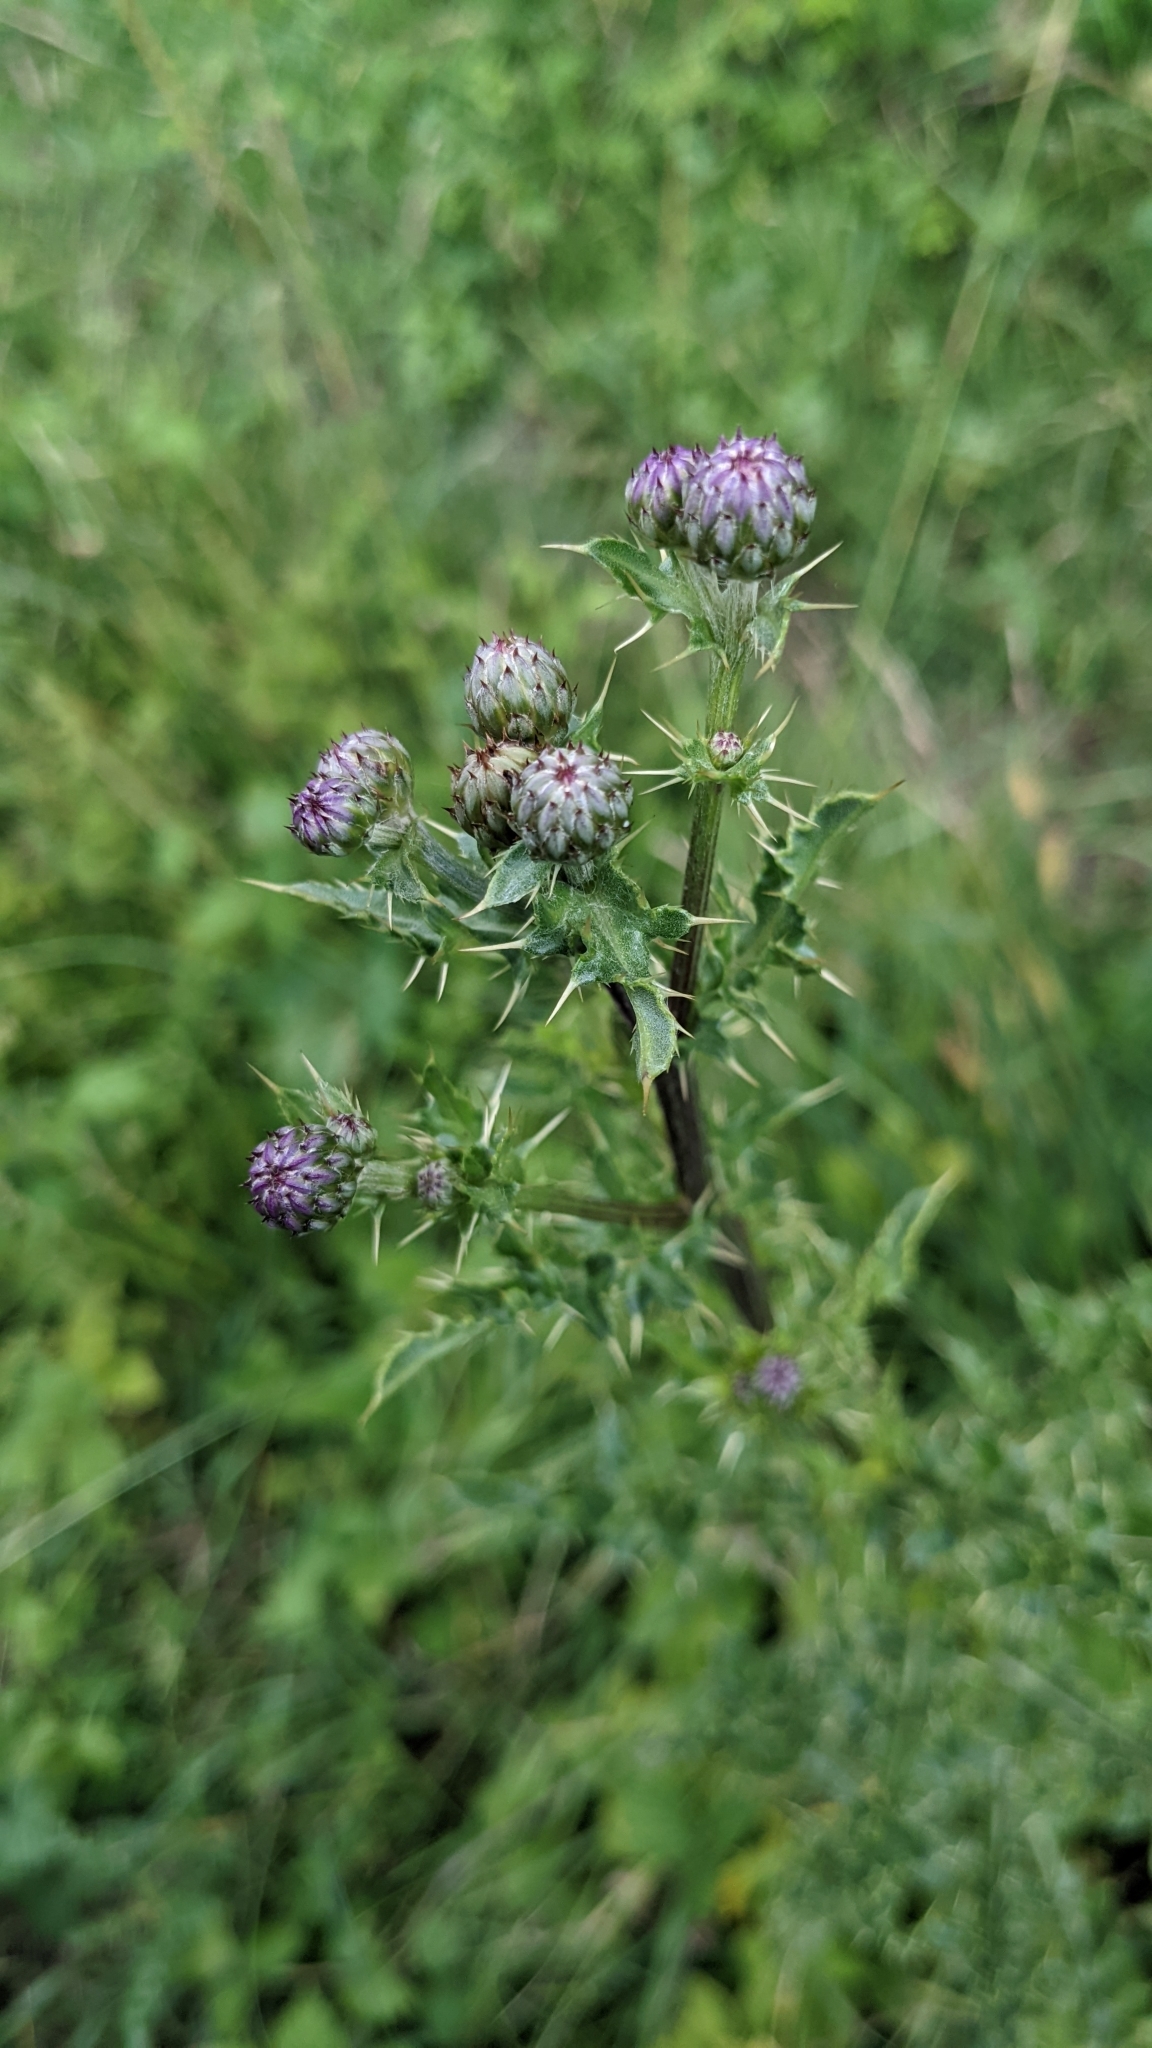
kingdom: Plantae
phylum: Tracheophyta
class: Magnoliopsida
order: Asterales
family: Asteraceae
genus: Cirsium
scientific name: Cirsium arvense
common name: Creeping thistle
